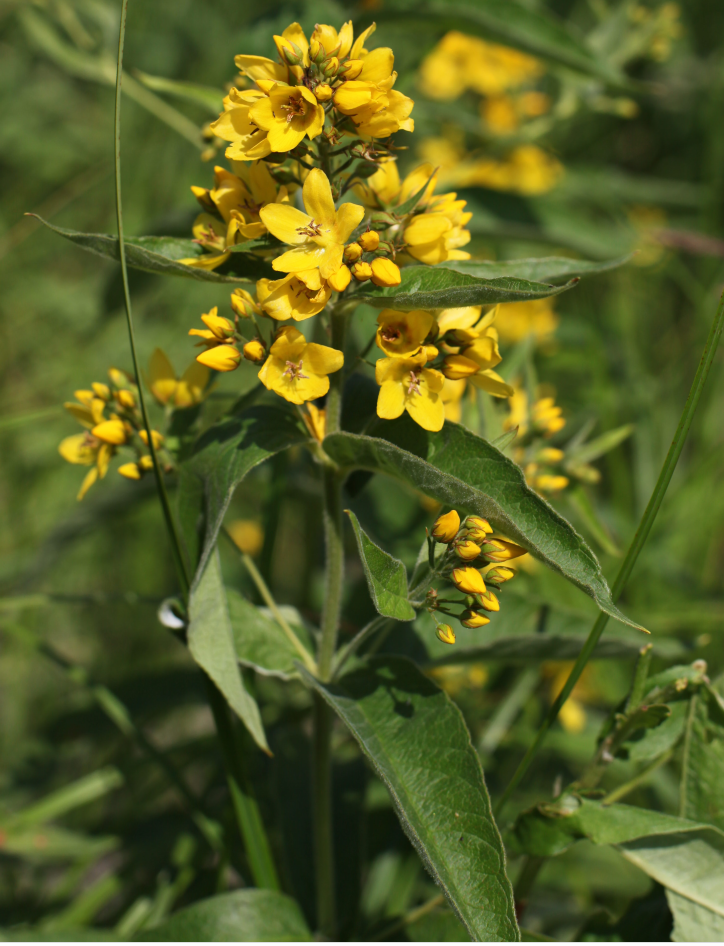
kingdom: Plantae
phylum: Tracheophyta
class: Magnoliopsida
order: Ericales
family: Primulaceae
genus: Lysimachia
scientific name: Lysimachia vulgaris
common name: Yellow loosestrife
